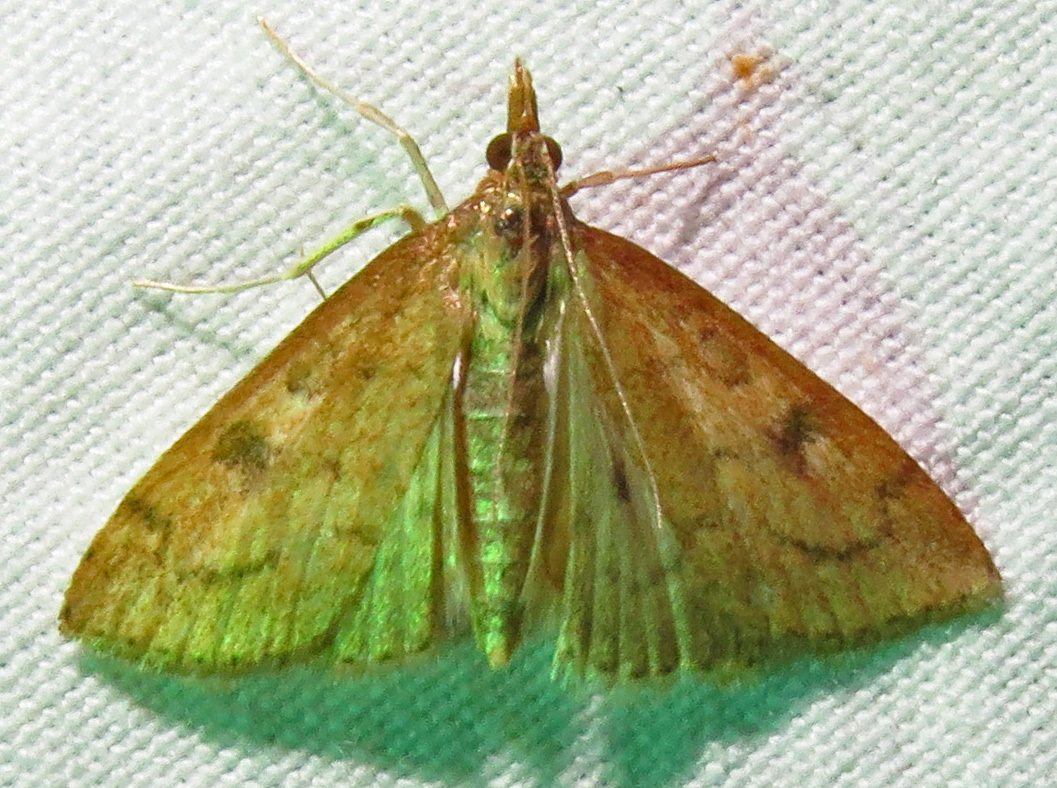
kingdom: Animalia
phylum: Arthropoda
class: Insecta
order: Lepidoptera
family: Crambidae
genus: Udea
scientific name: Udea rubigalis
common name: Celery leaftier moth
